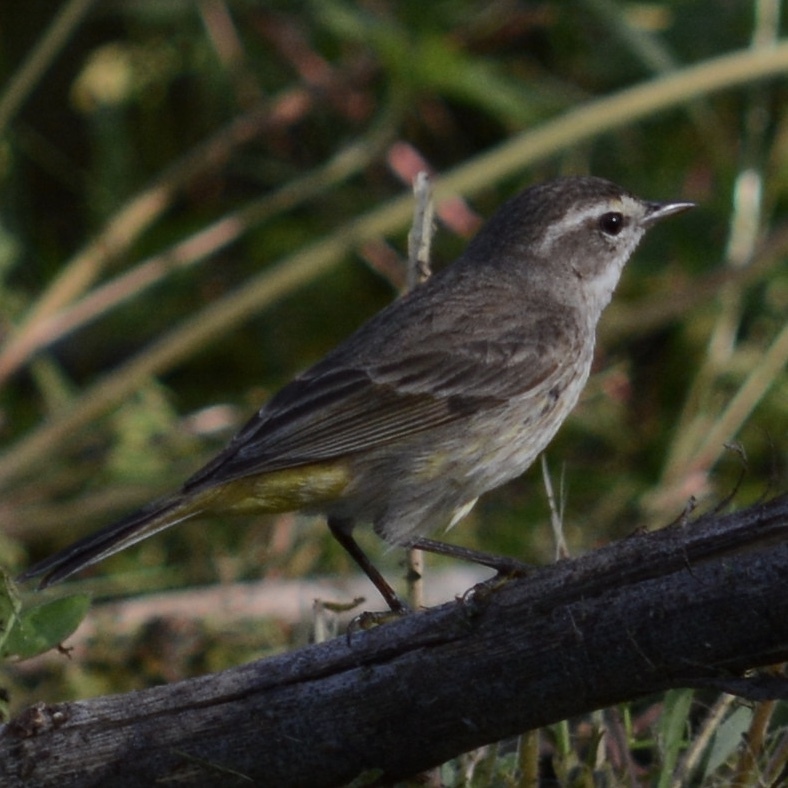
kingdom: Animalia
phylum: Chordata
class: Aves
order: Passeriformes
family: Parulidae
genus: Setophaga
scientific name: Setophaga palmarum
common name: Palm warbler
